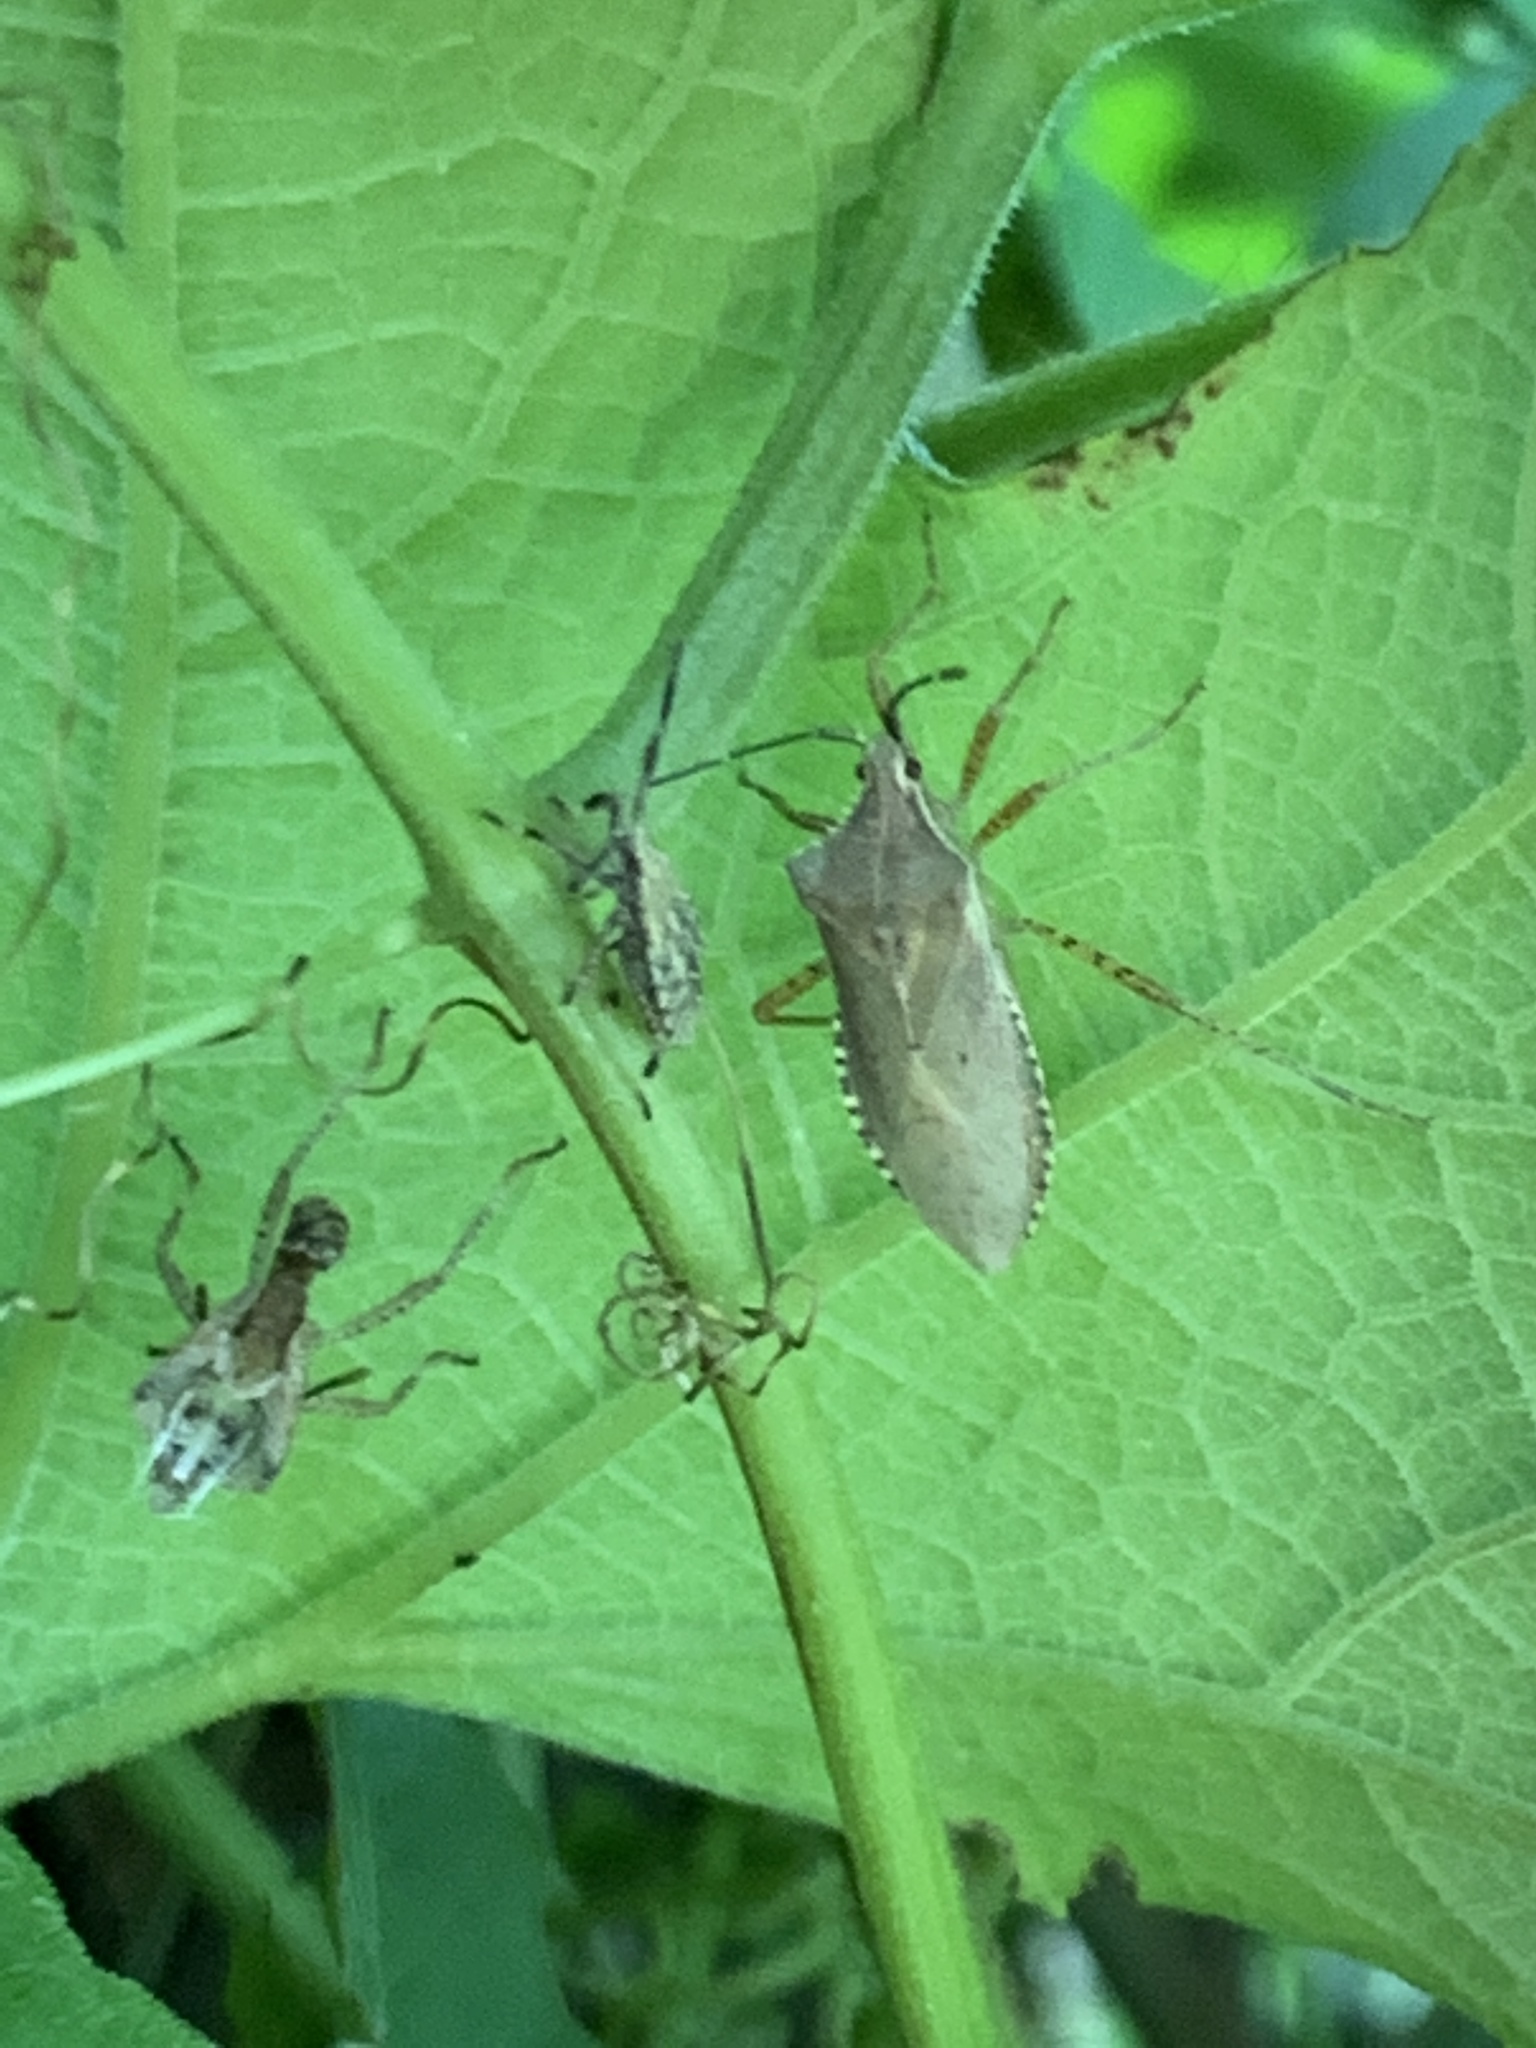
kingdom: Animalia
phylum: Arthropoda
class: Insecta
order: Hemiptera
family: Coreidae
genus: Anasa
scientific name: Anasa guttifera
